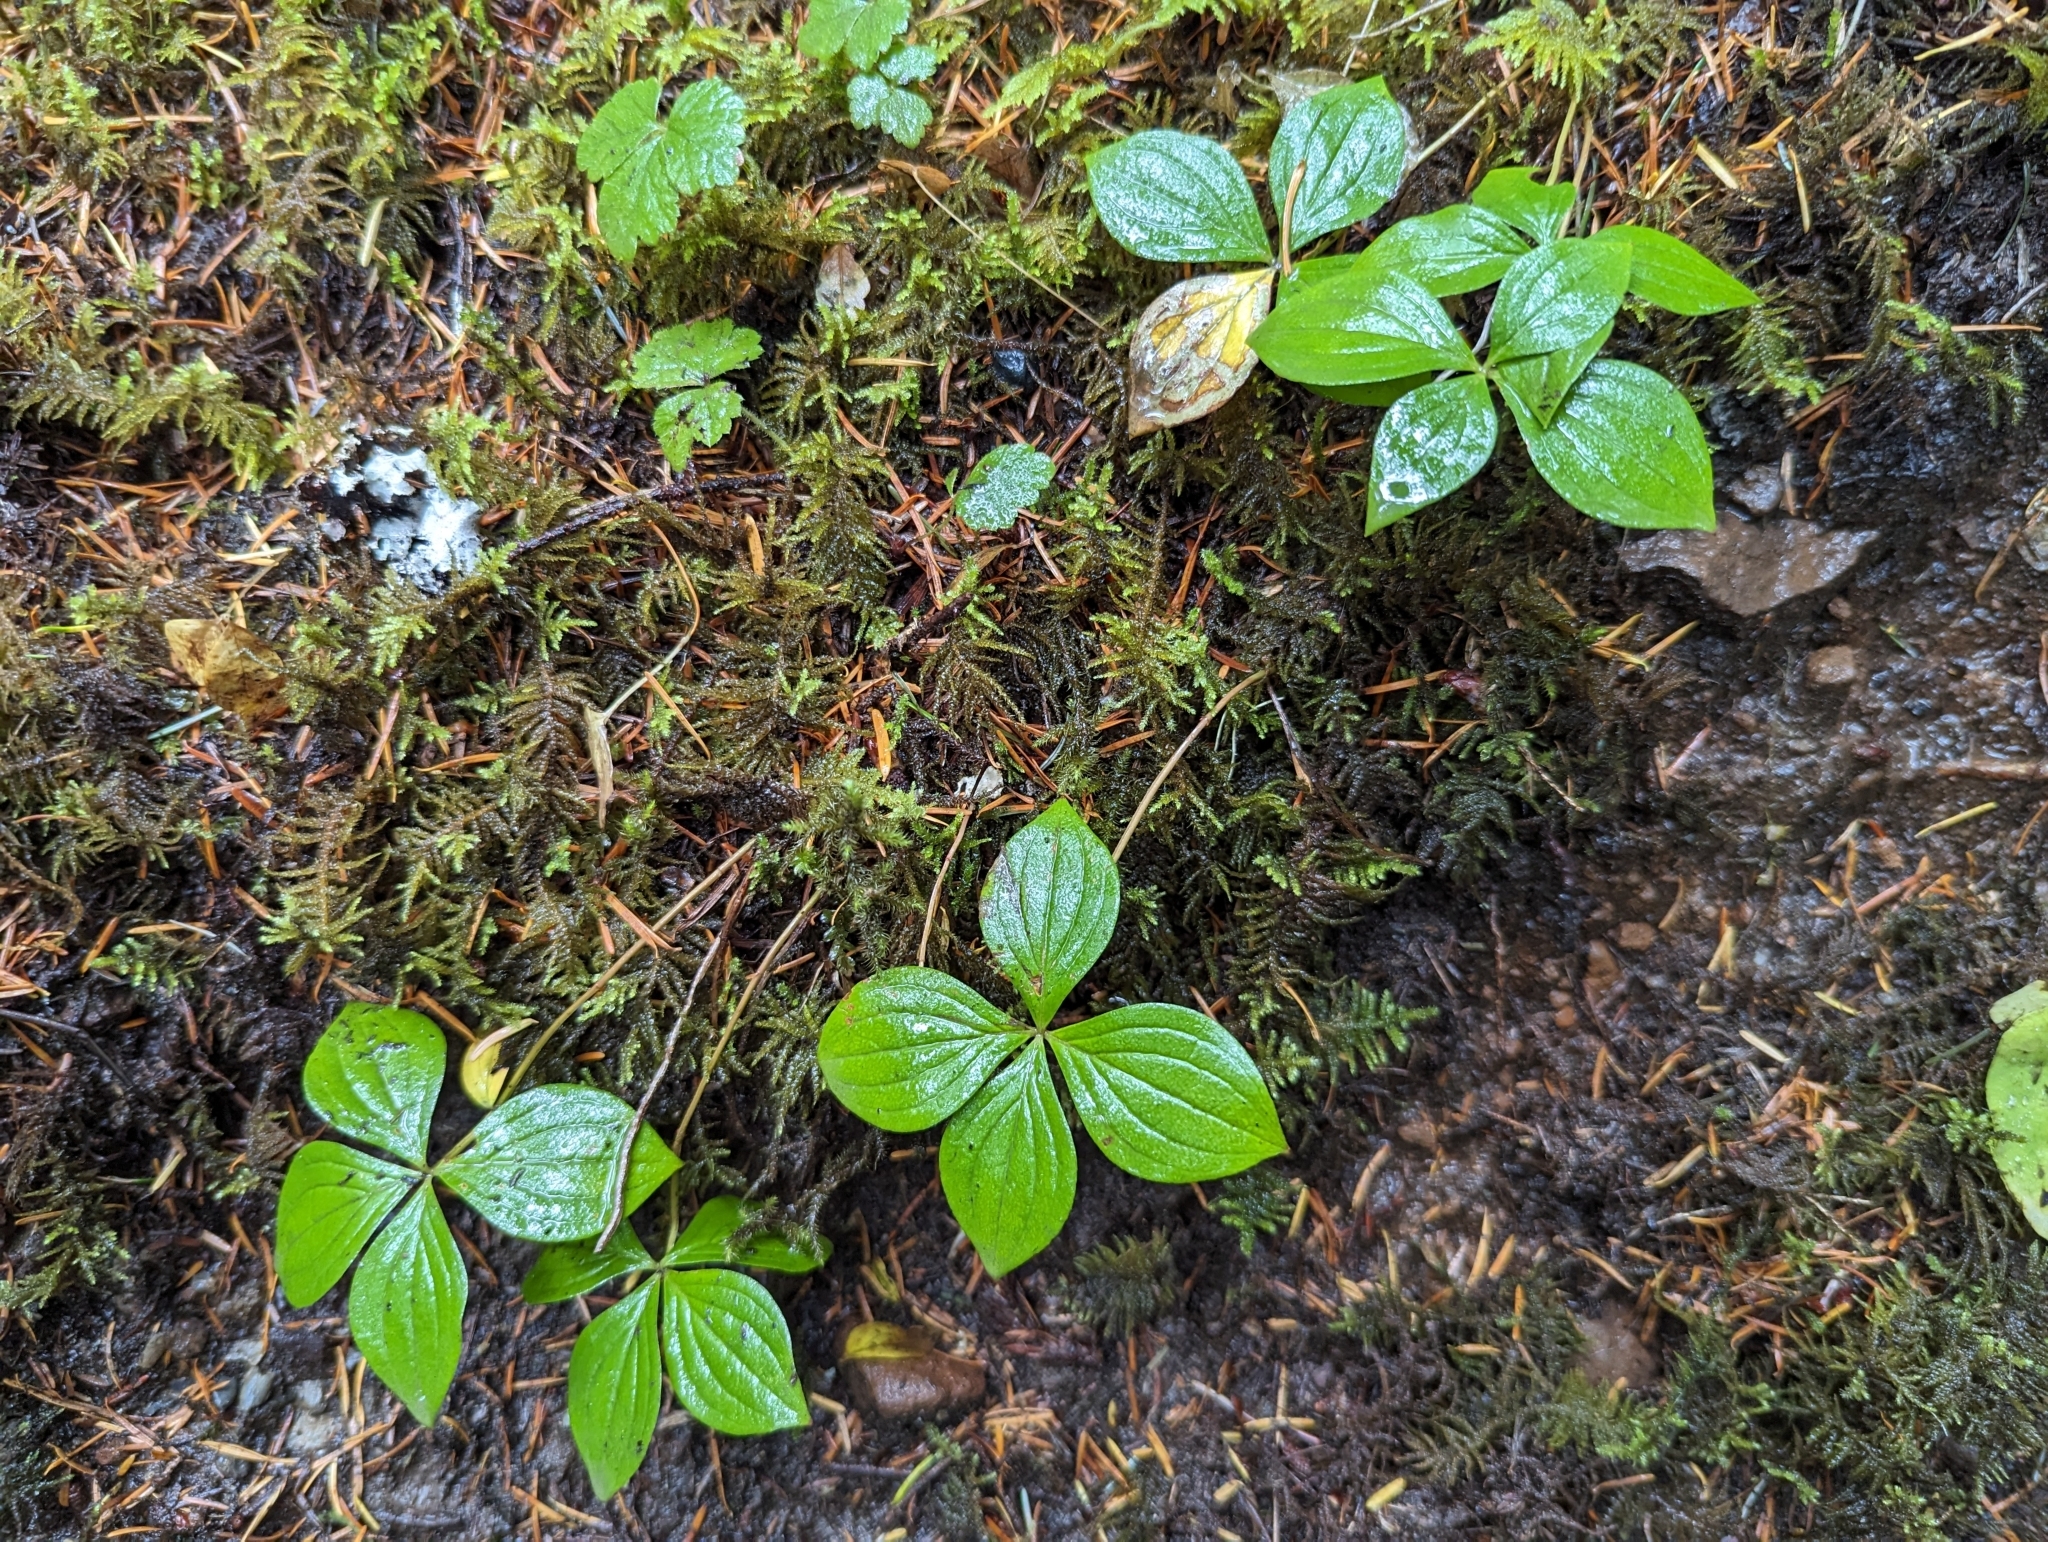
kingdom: Plantae
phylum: Tracheophyta
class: Magnoliopsida
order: Cornales
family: Cornaceae
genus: Cornus
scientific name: Cornus unalaschkensis
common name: Alaska bunchberry
